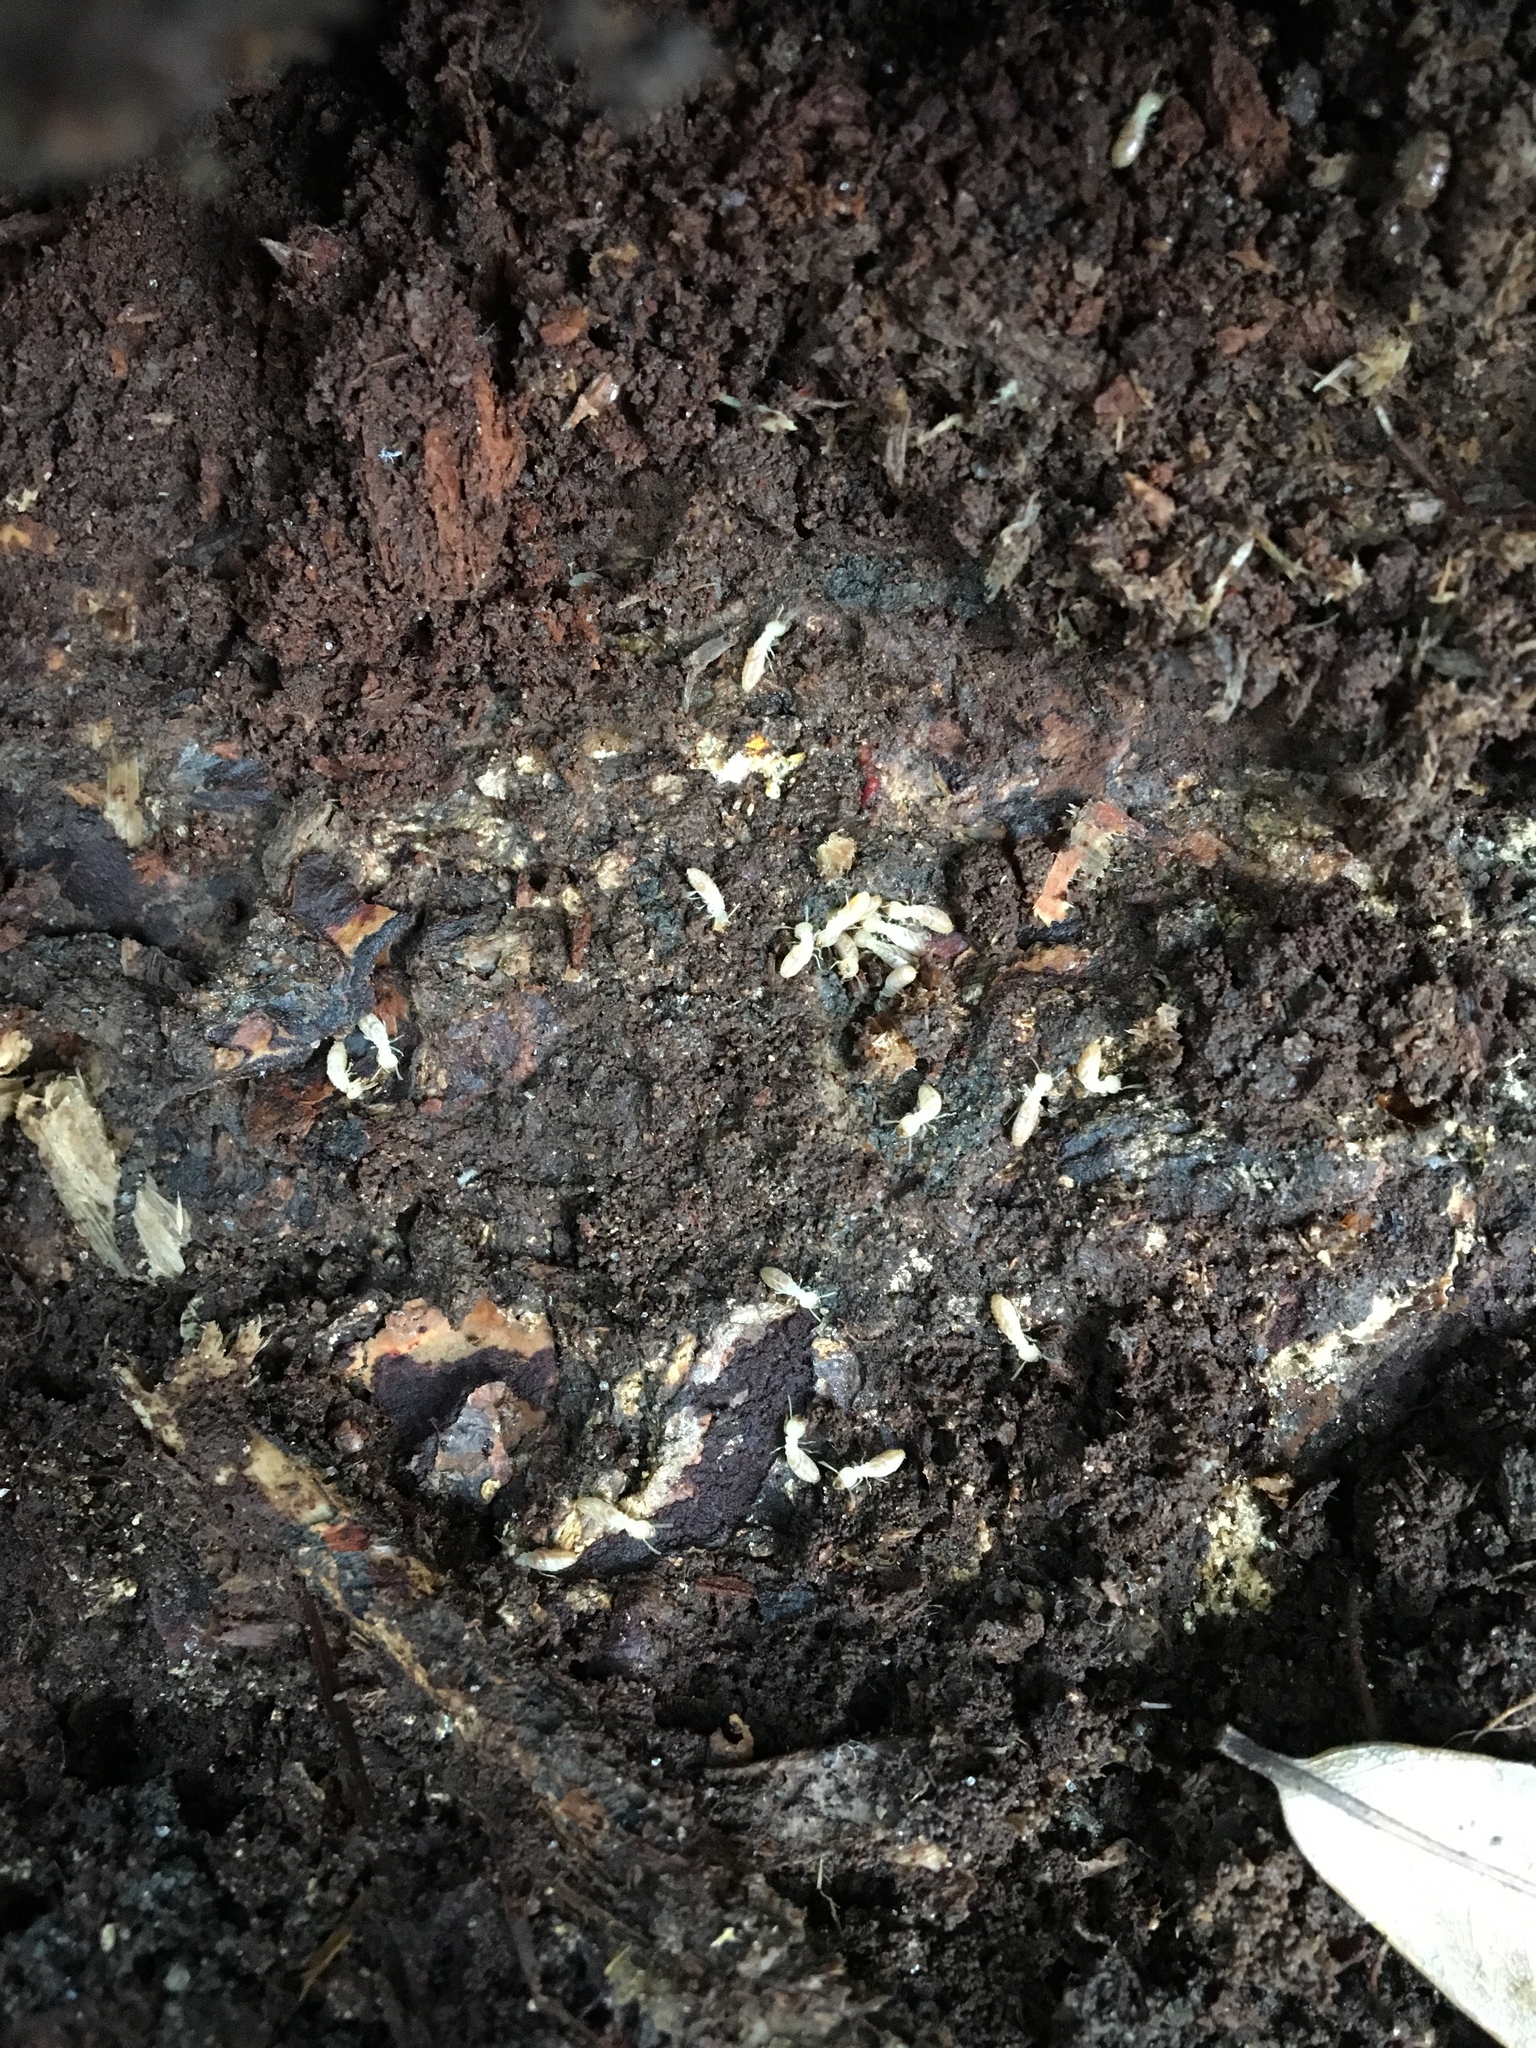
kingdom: Animalia
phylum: Arthropoda
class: Insecta
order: Blattodea
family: Rhinotermitidae
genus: Reticulitermes
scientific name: Reticulitermes flavipes
